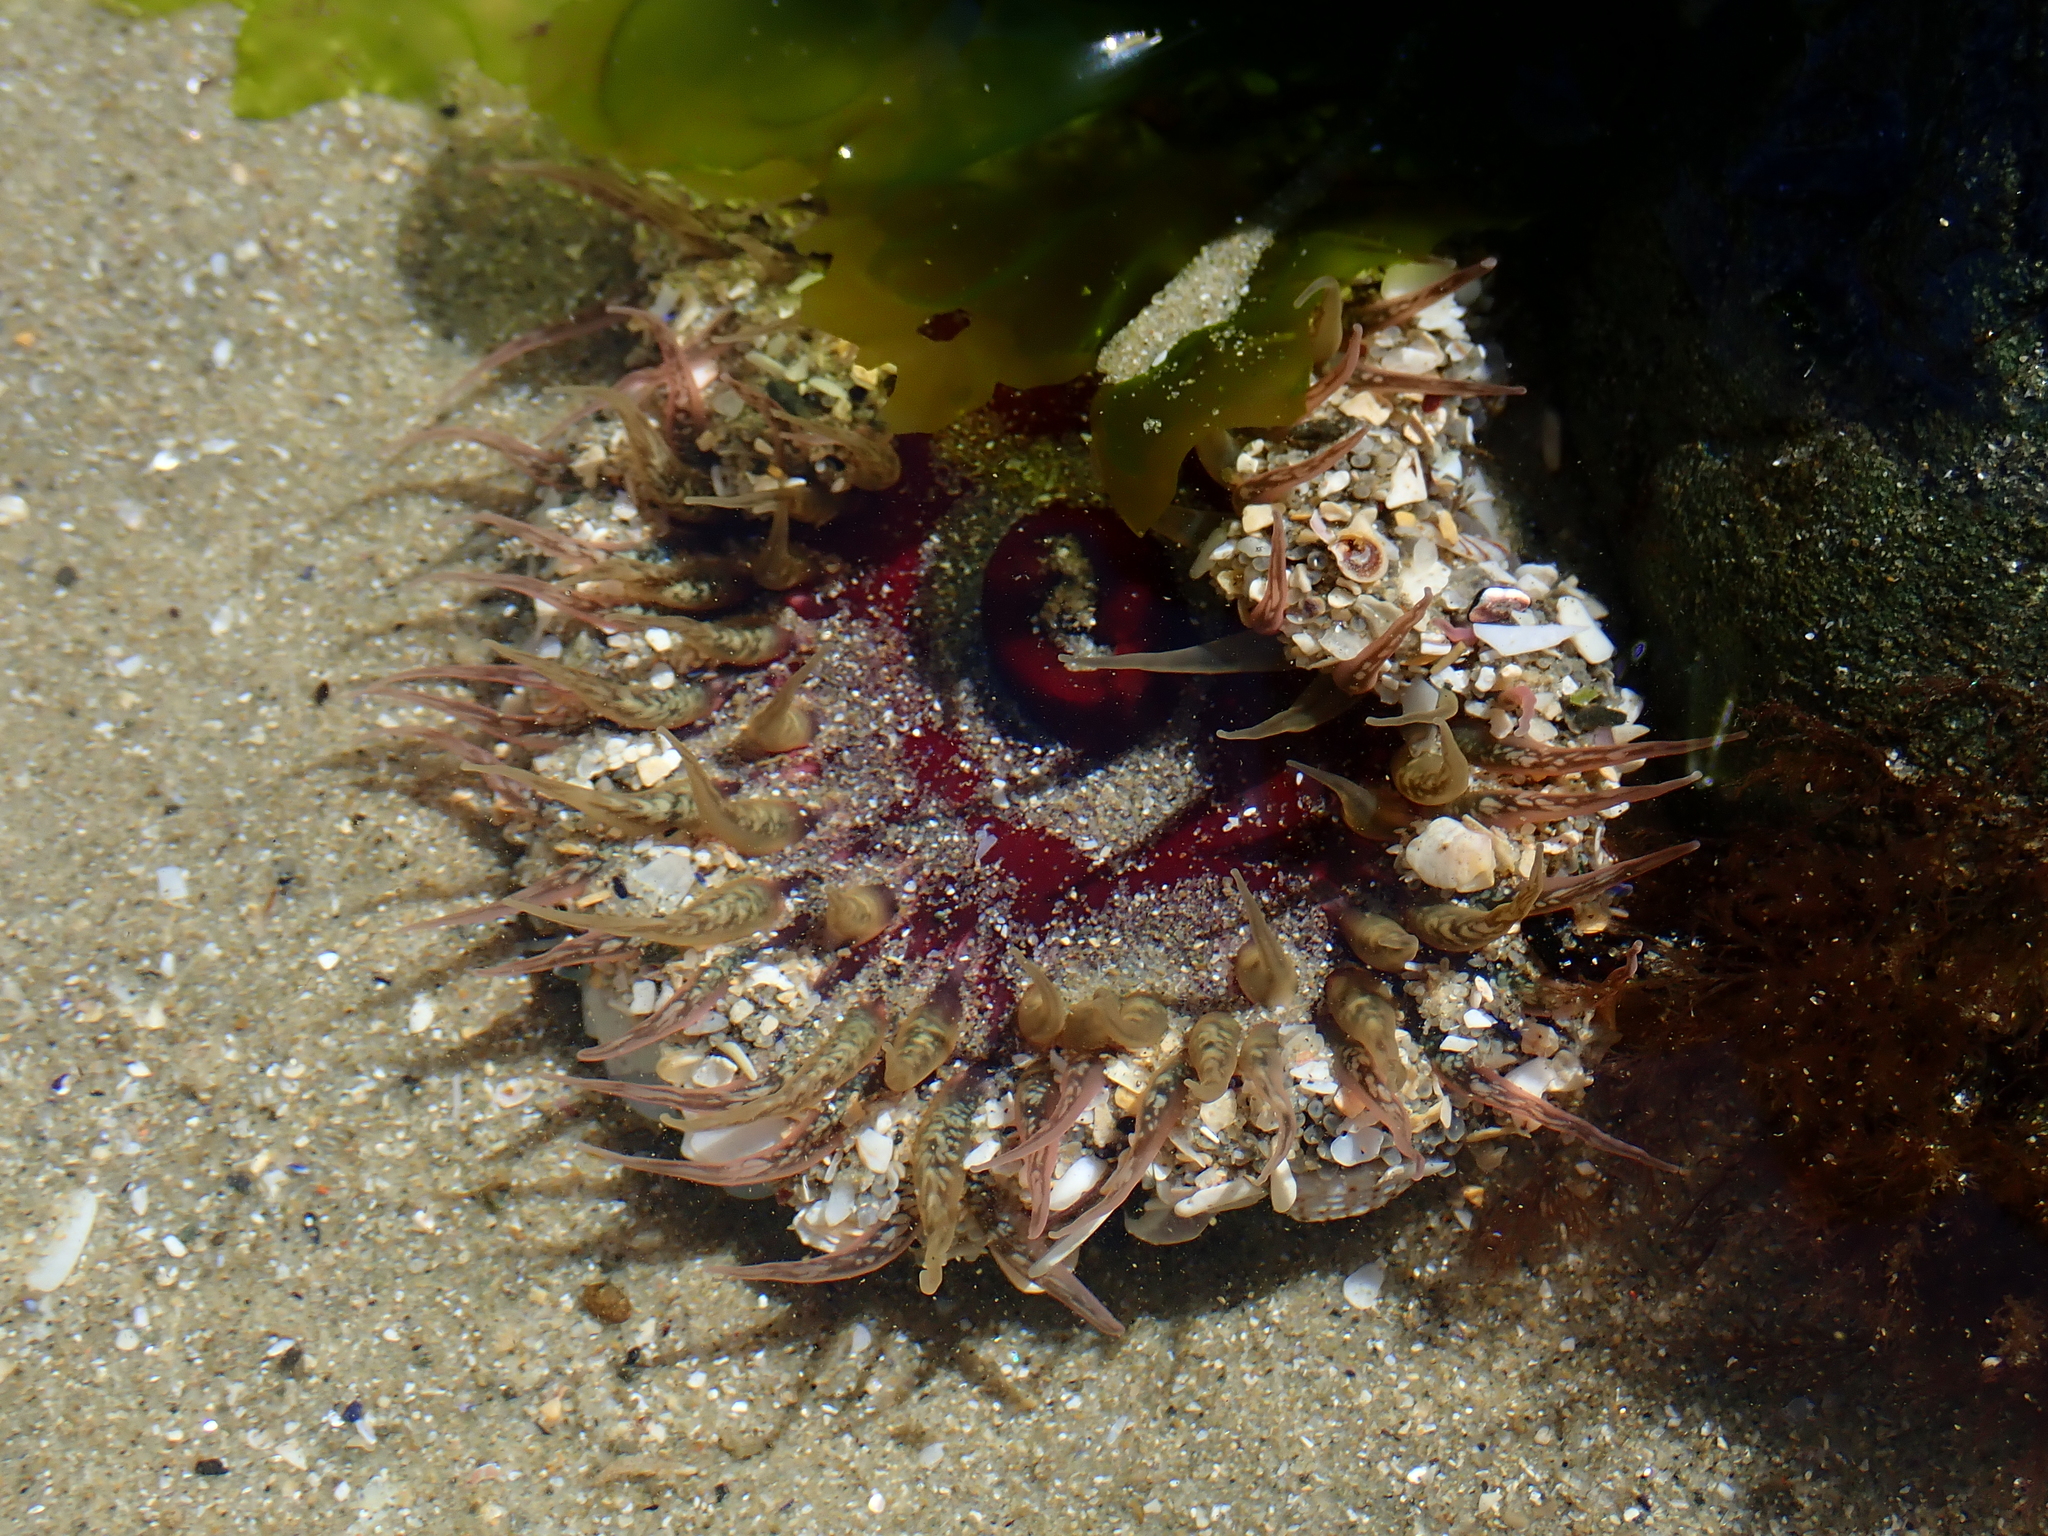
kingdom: Animalia
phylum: Cnidaria
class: Anthozoa
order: Actiniaria
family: Actiniidae
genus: Oulactis
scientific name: Oulactis muscosa
